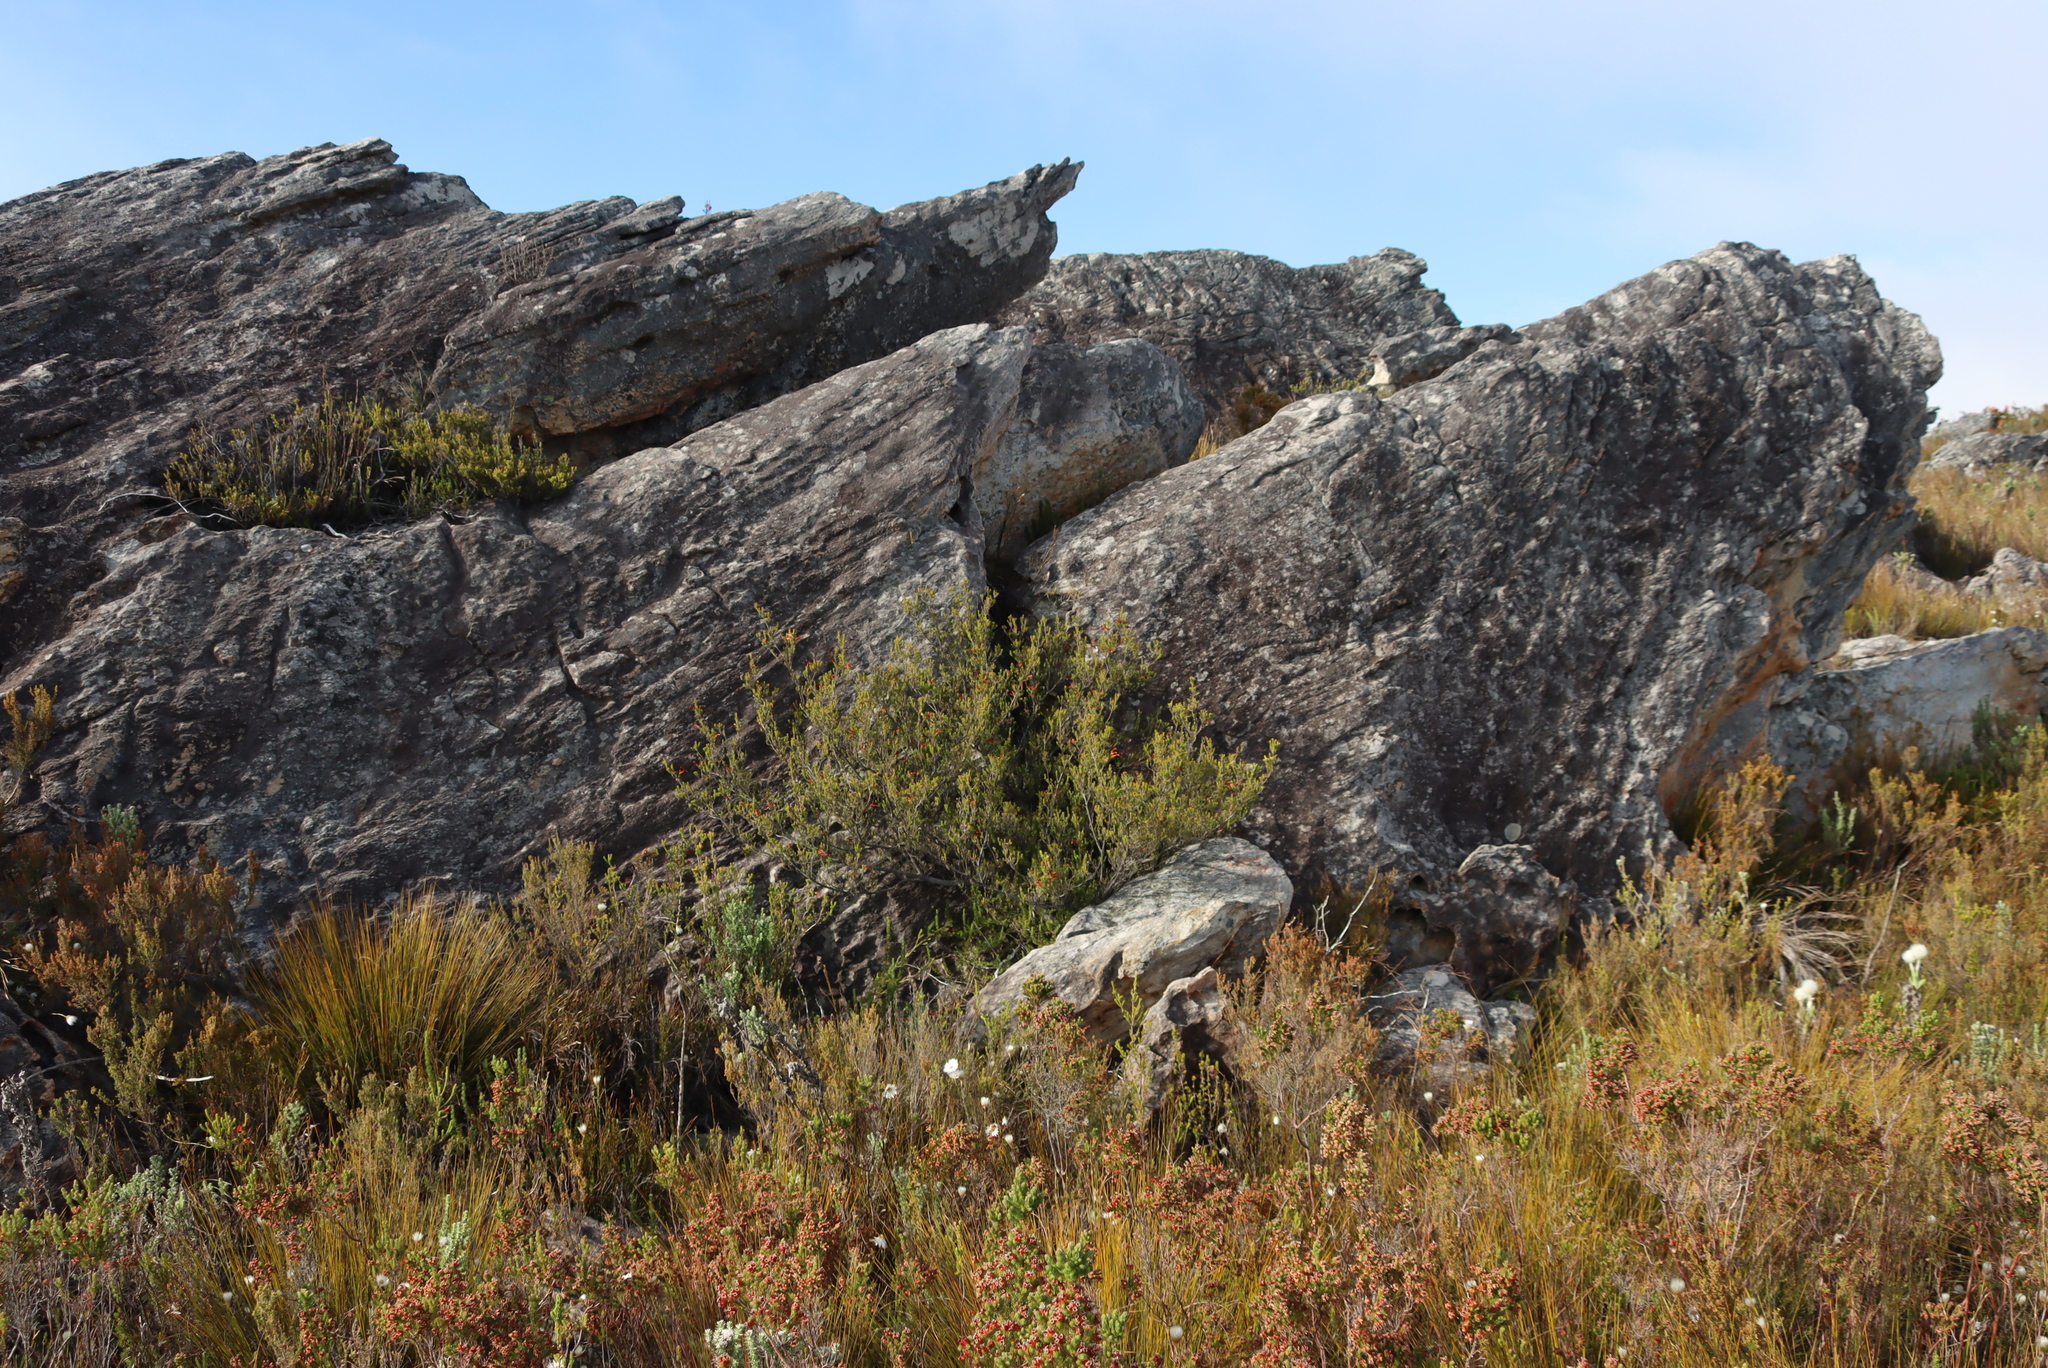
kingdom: Plantae
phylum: Tracheophyta
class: Magnoliopsida
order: Ericales
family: Ericaceae
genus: Erica
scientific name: Erica discolor
